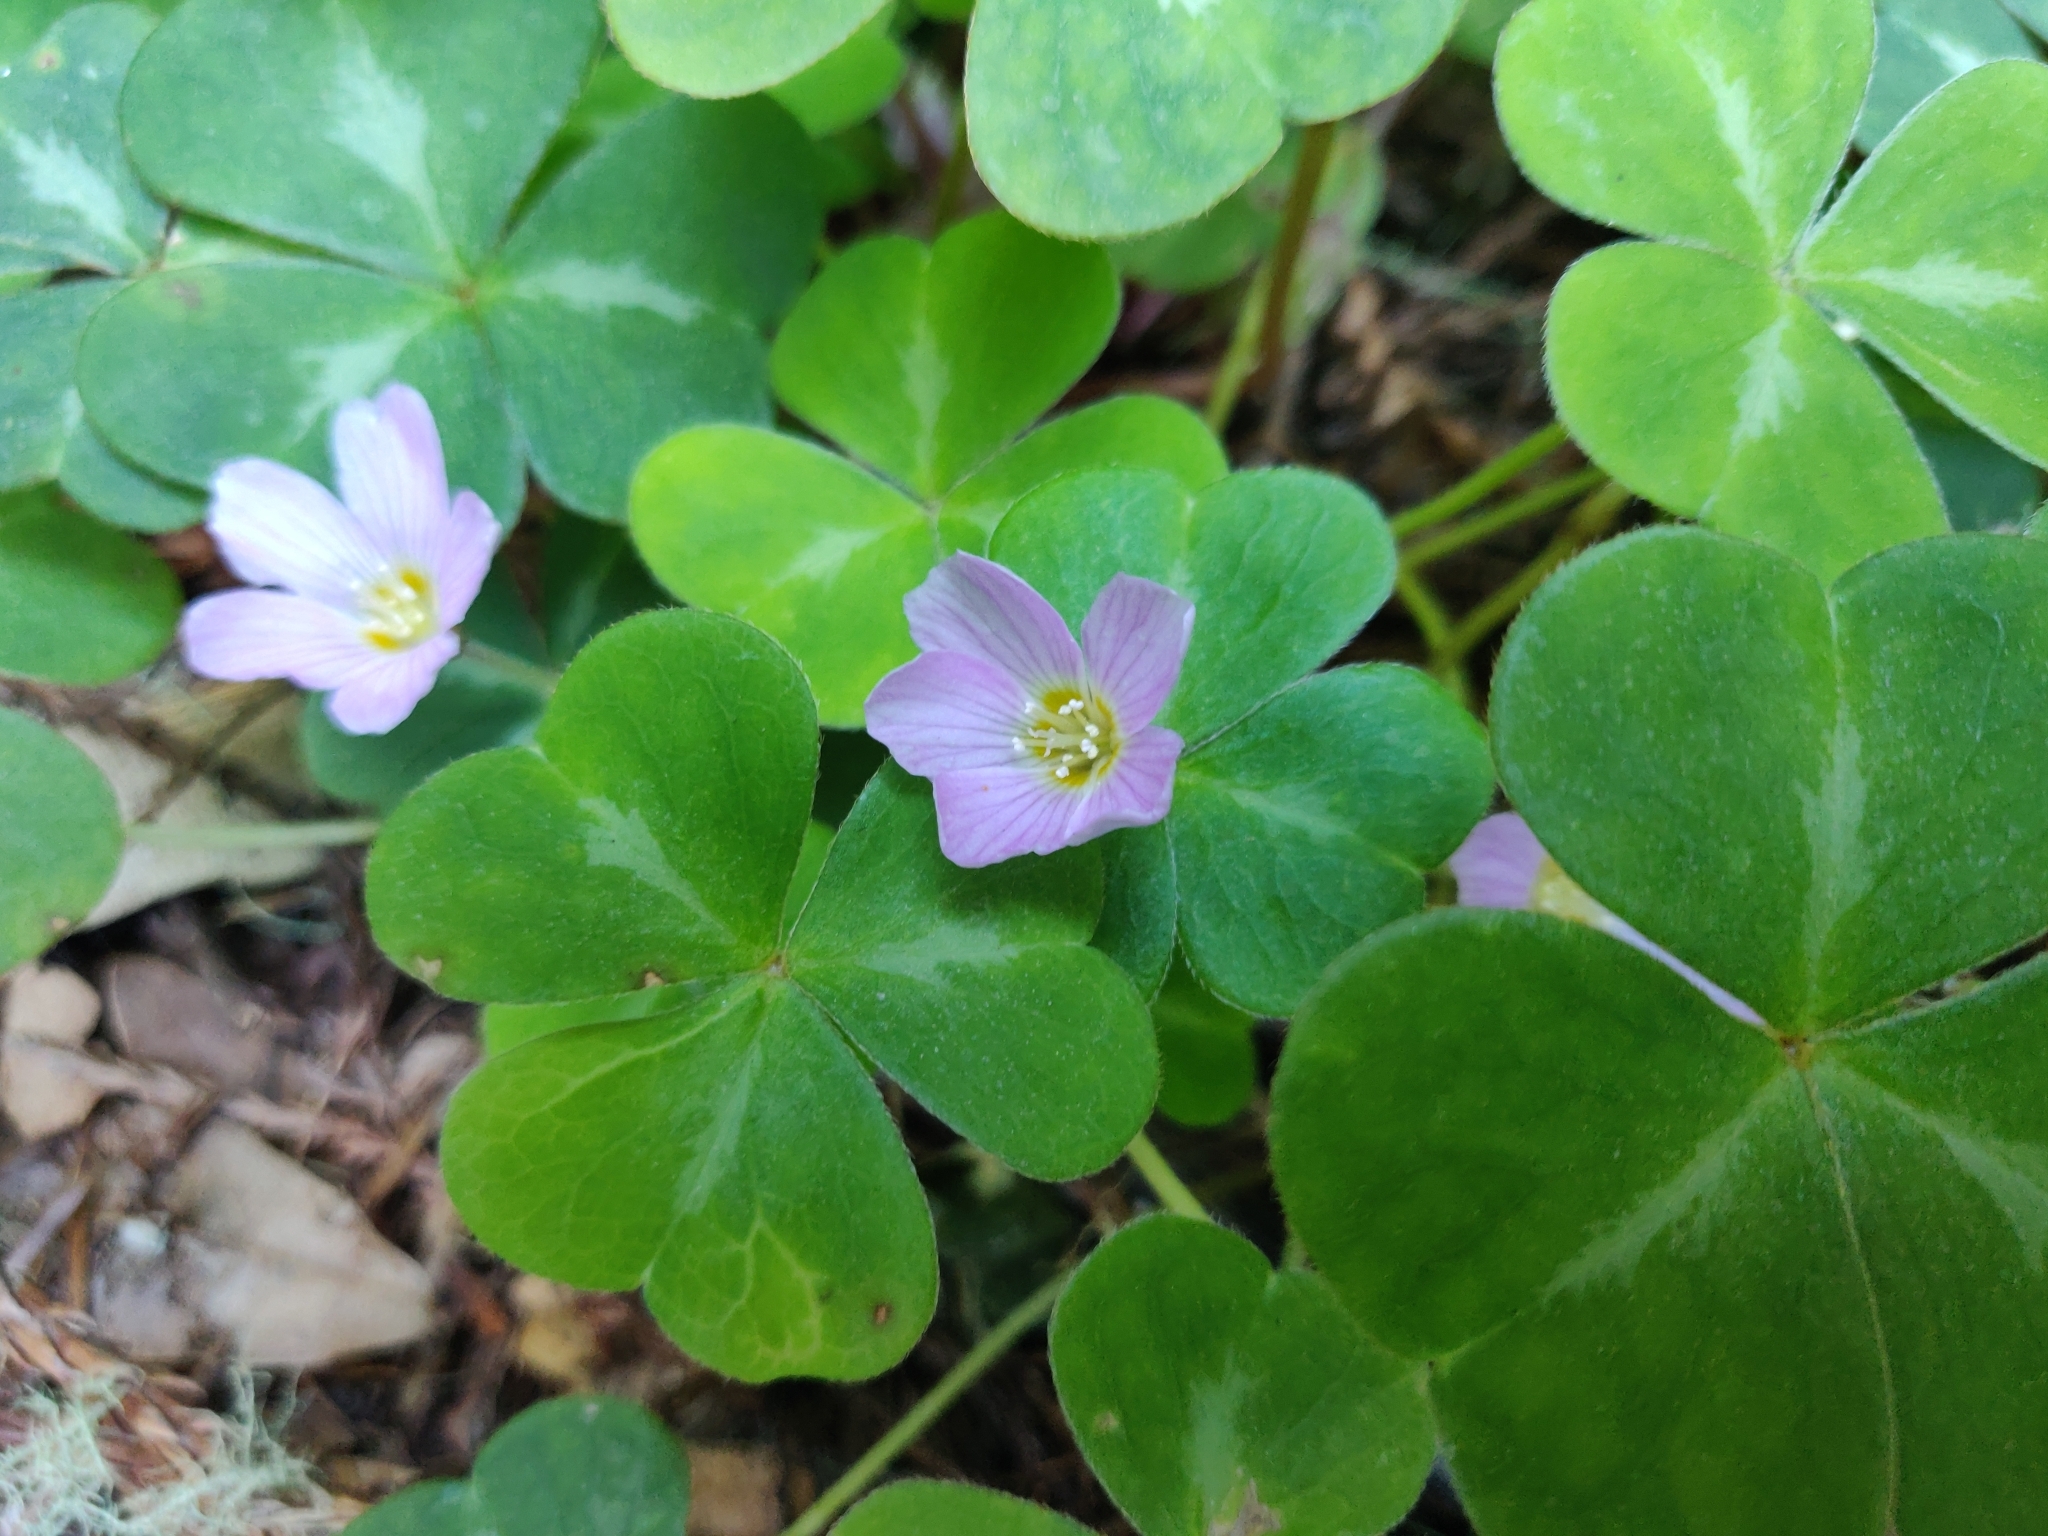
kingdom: Plantae
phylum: Tracheophyta
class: Magnoliopsida
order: Oxalidales
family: Oxalidaceae
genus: Oxalis
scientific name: Oxalis oregana
